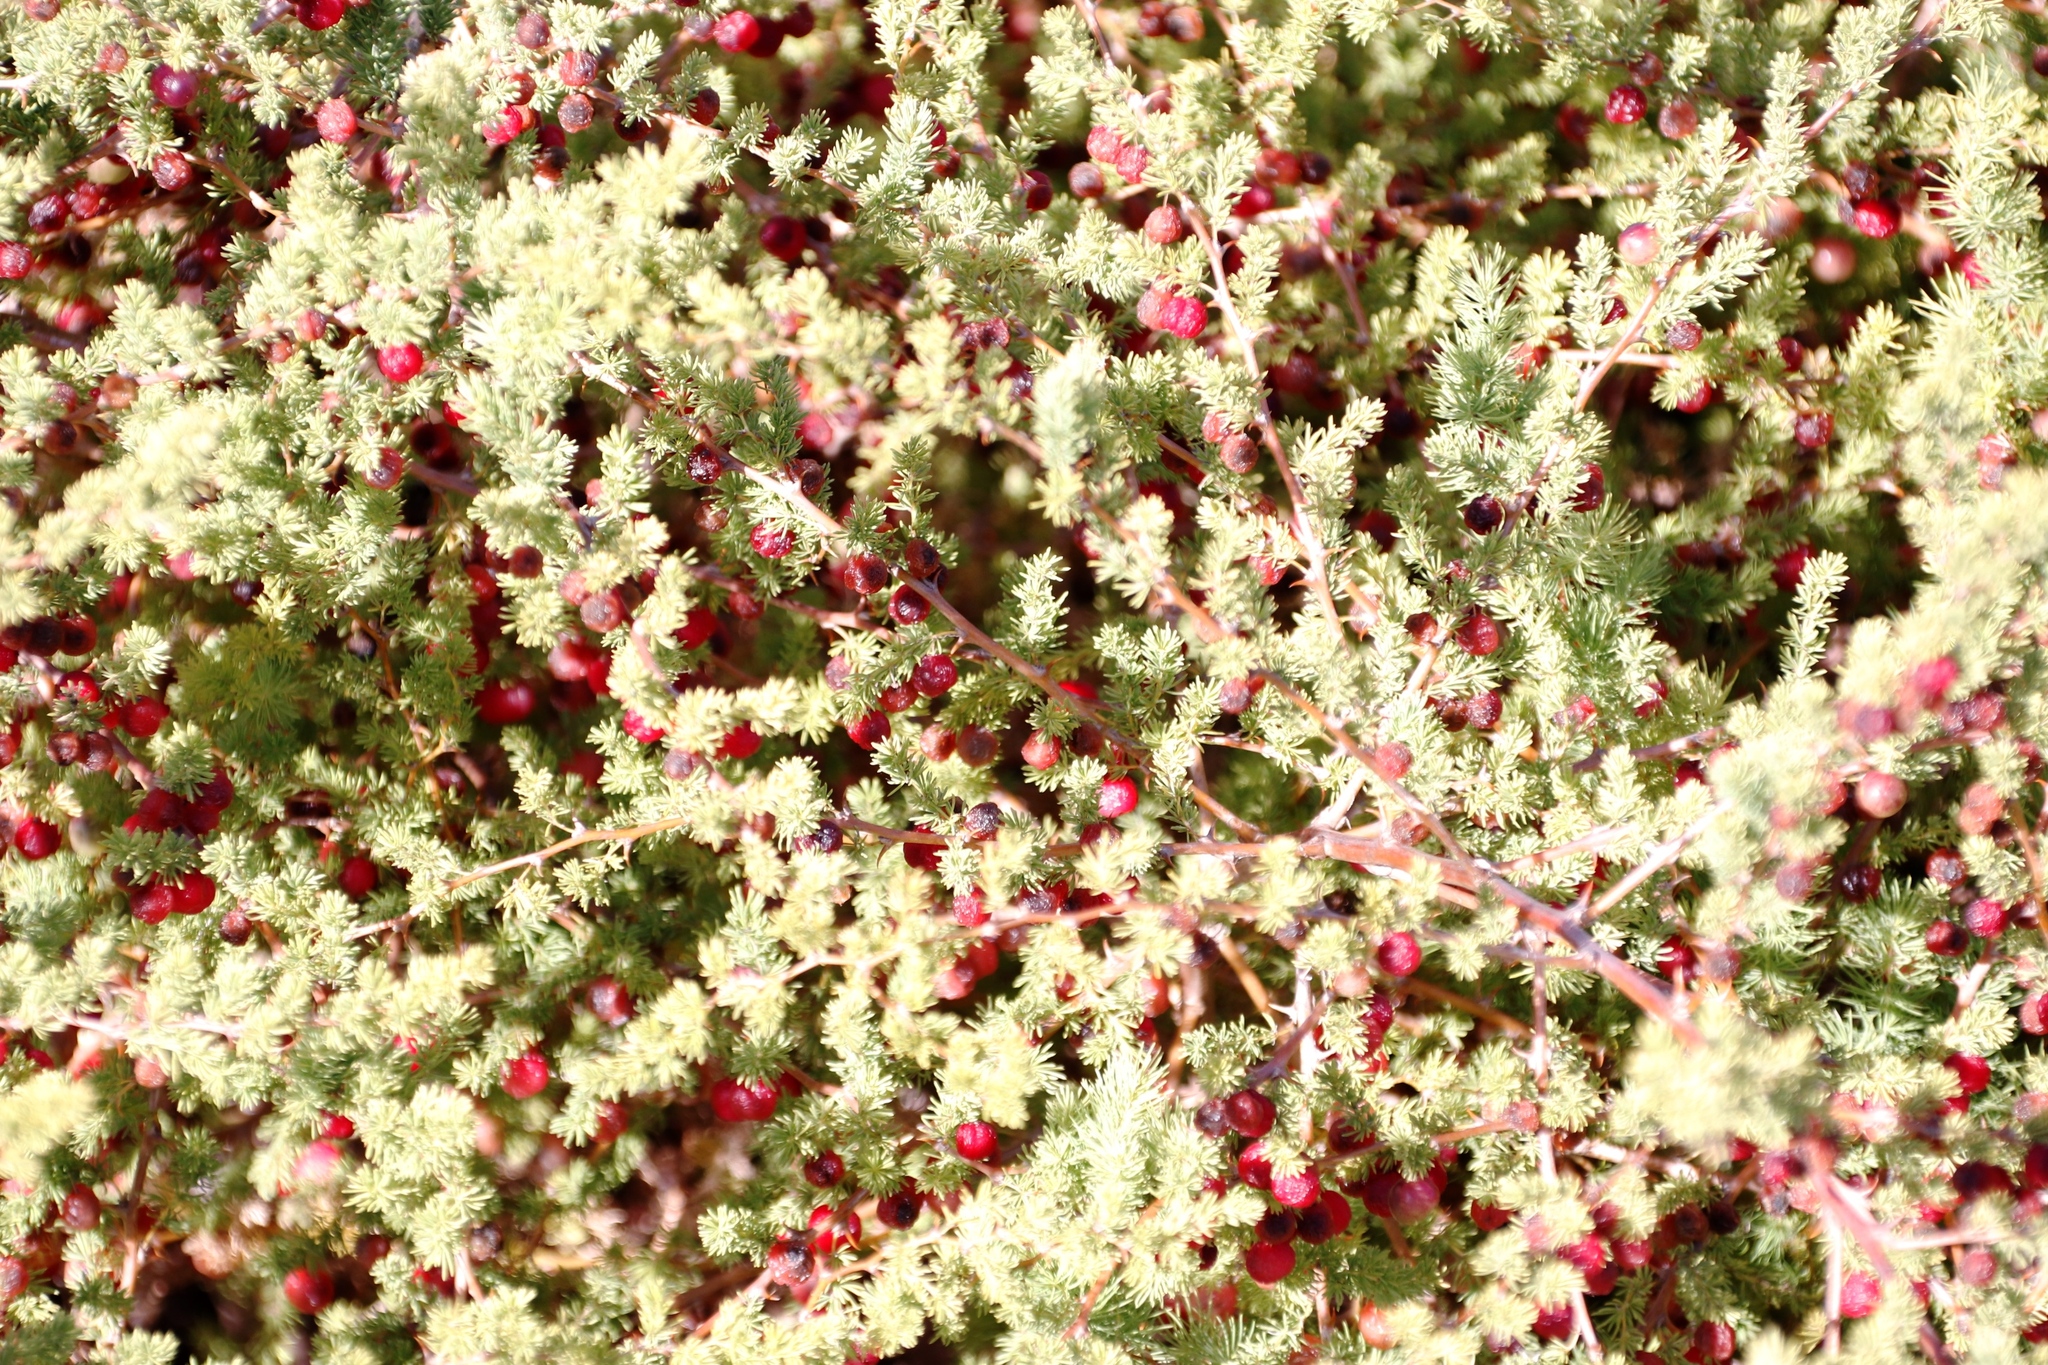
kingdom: Plantae
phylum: Tracheophyta
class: Liliopsida
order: Asparagales
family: Asparagaceae
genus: Asparagus
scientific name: Asparagus rubicundus
